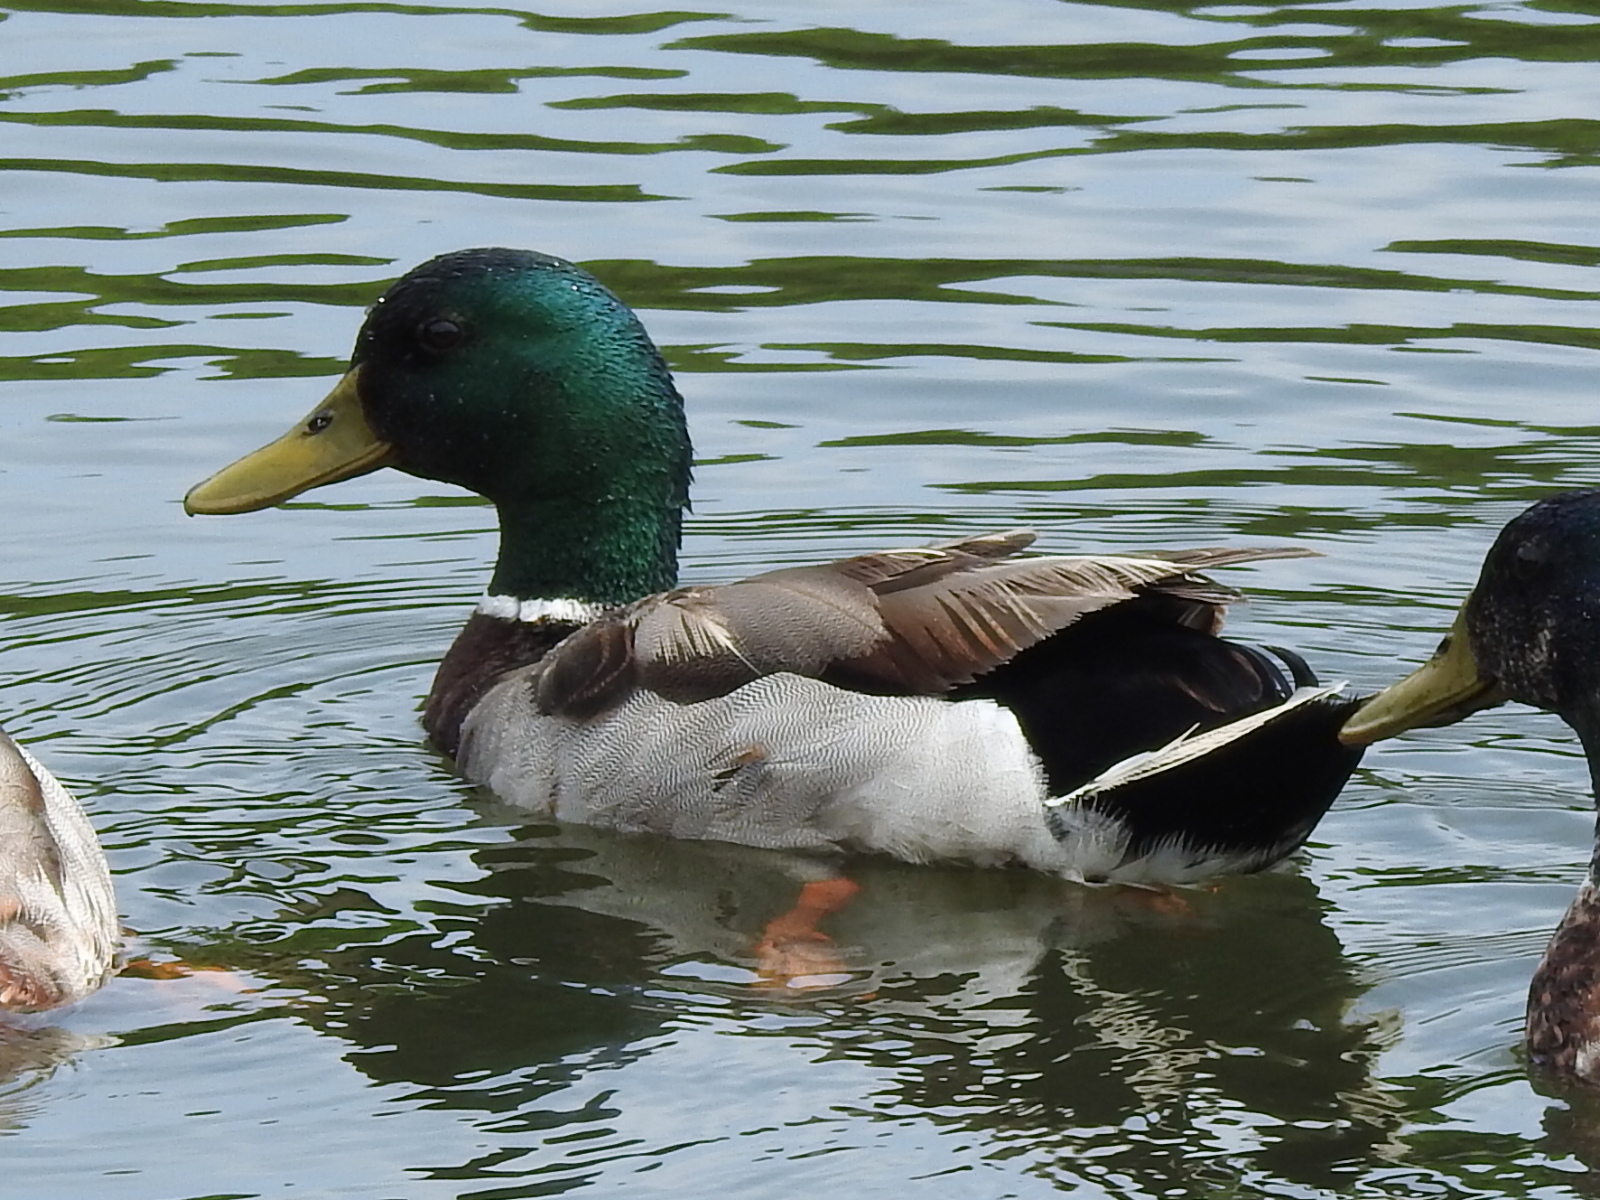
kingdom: Animalia
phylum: Chordata
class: Aves
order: Anseriformes
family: Anatidae
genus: Anas
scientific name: Anas platyrhynchos
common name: Mallard
